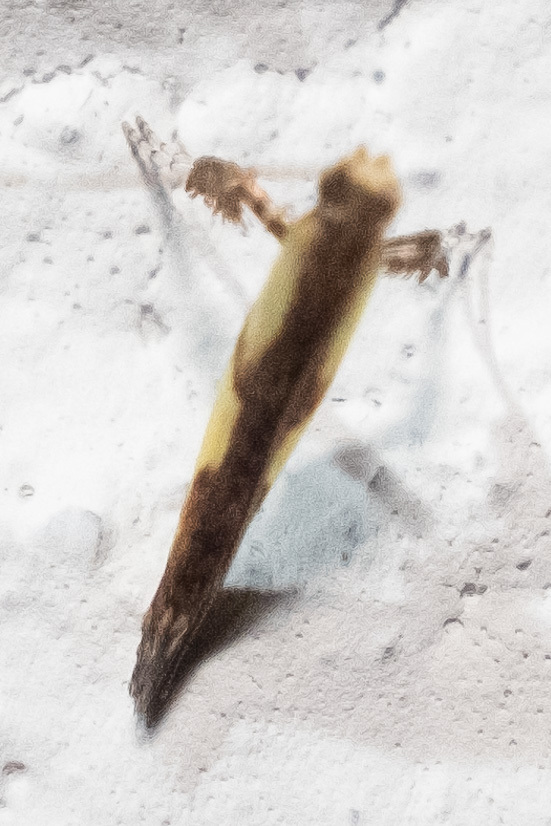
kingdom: Animalia
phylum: Arthropoda
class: Insecta
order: Lepidoptera
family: Gracillariidae
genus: Caloptilia
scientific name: Caloptilia blandella
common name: Walnut caloptilia moth
